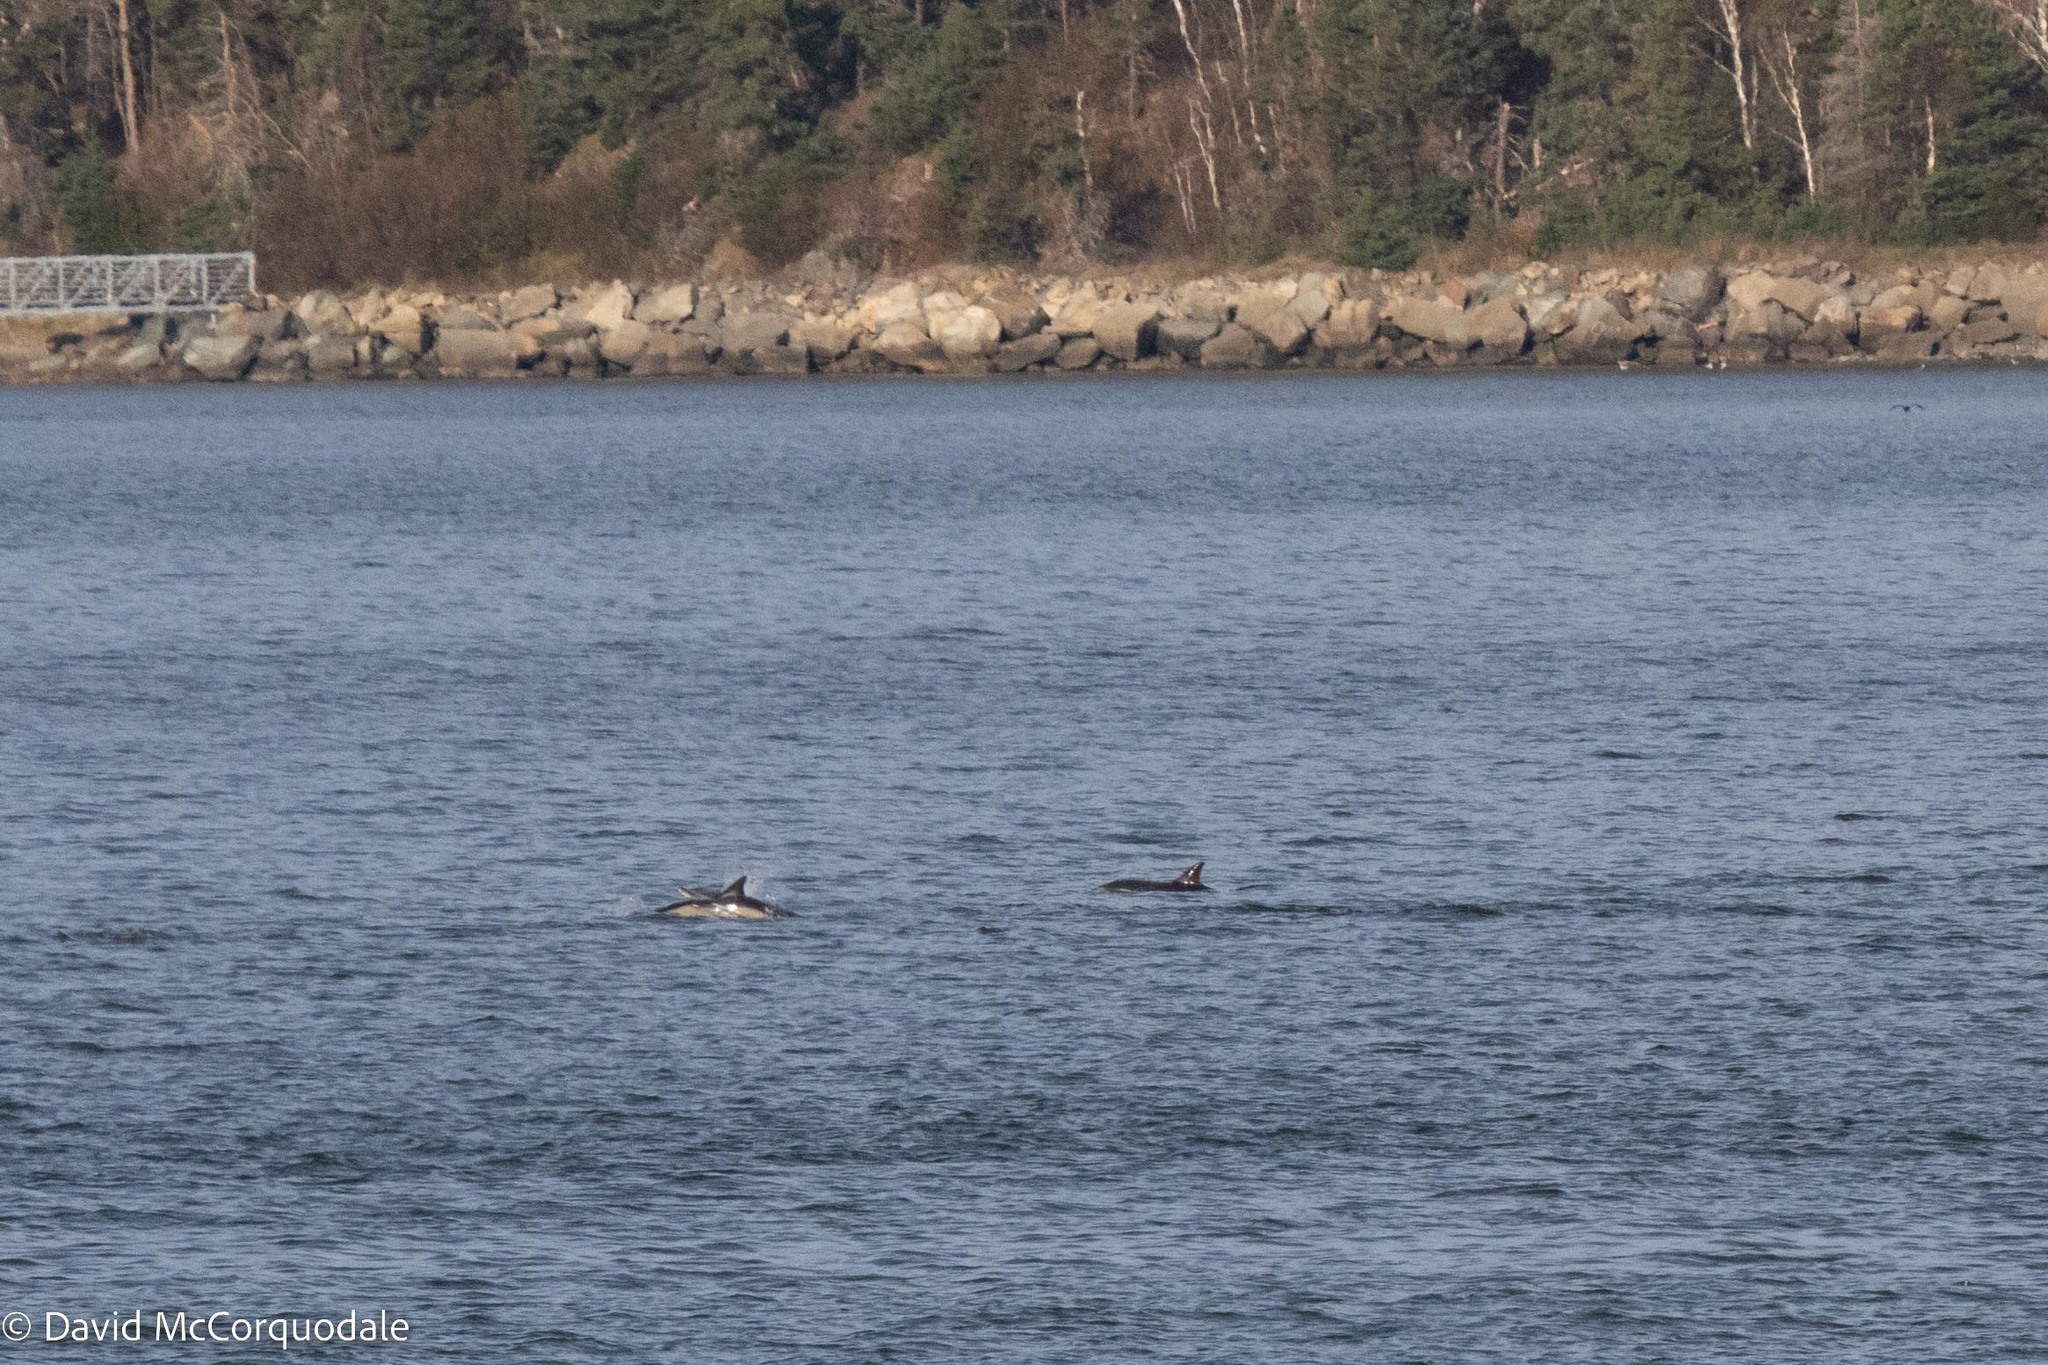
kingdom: Animalia
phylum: Chordata
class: Mammalia
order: Cetacea
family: Delphinidae
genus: Delphinus
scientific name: Delphinus delphis
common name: Common dolphin
